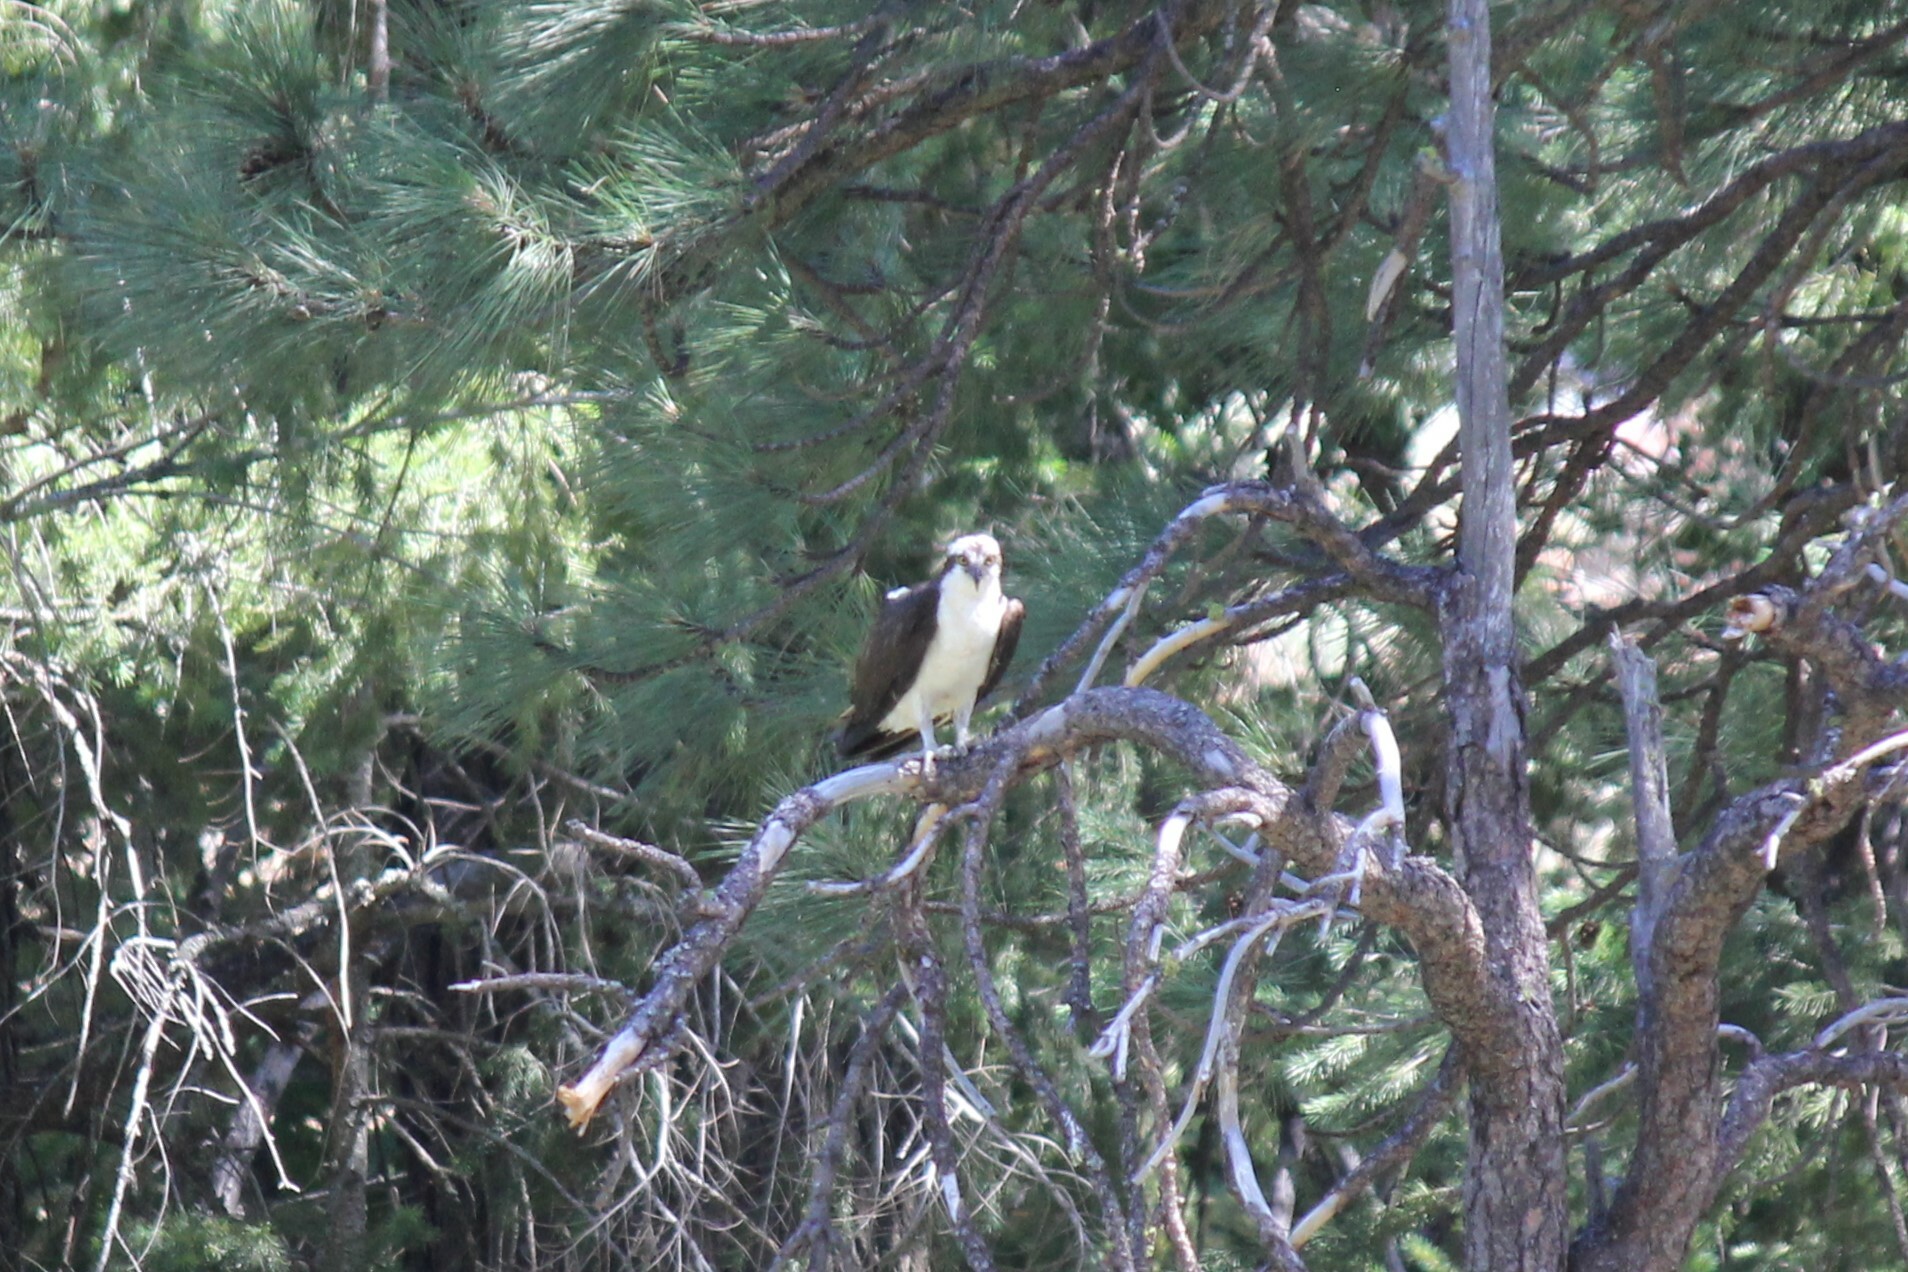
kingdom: Animalia
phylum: Chordata
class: Aves
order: Accipitriformes
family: Pandionidae
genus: Pandion
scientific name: Pandion haliaetus
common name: Osprey
